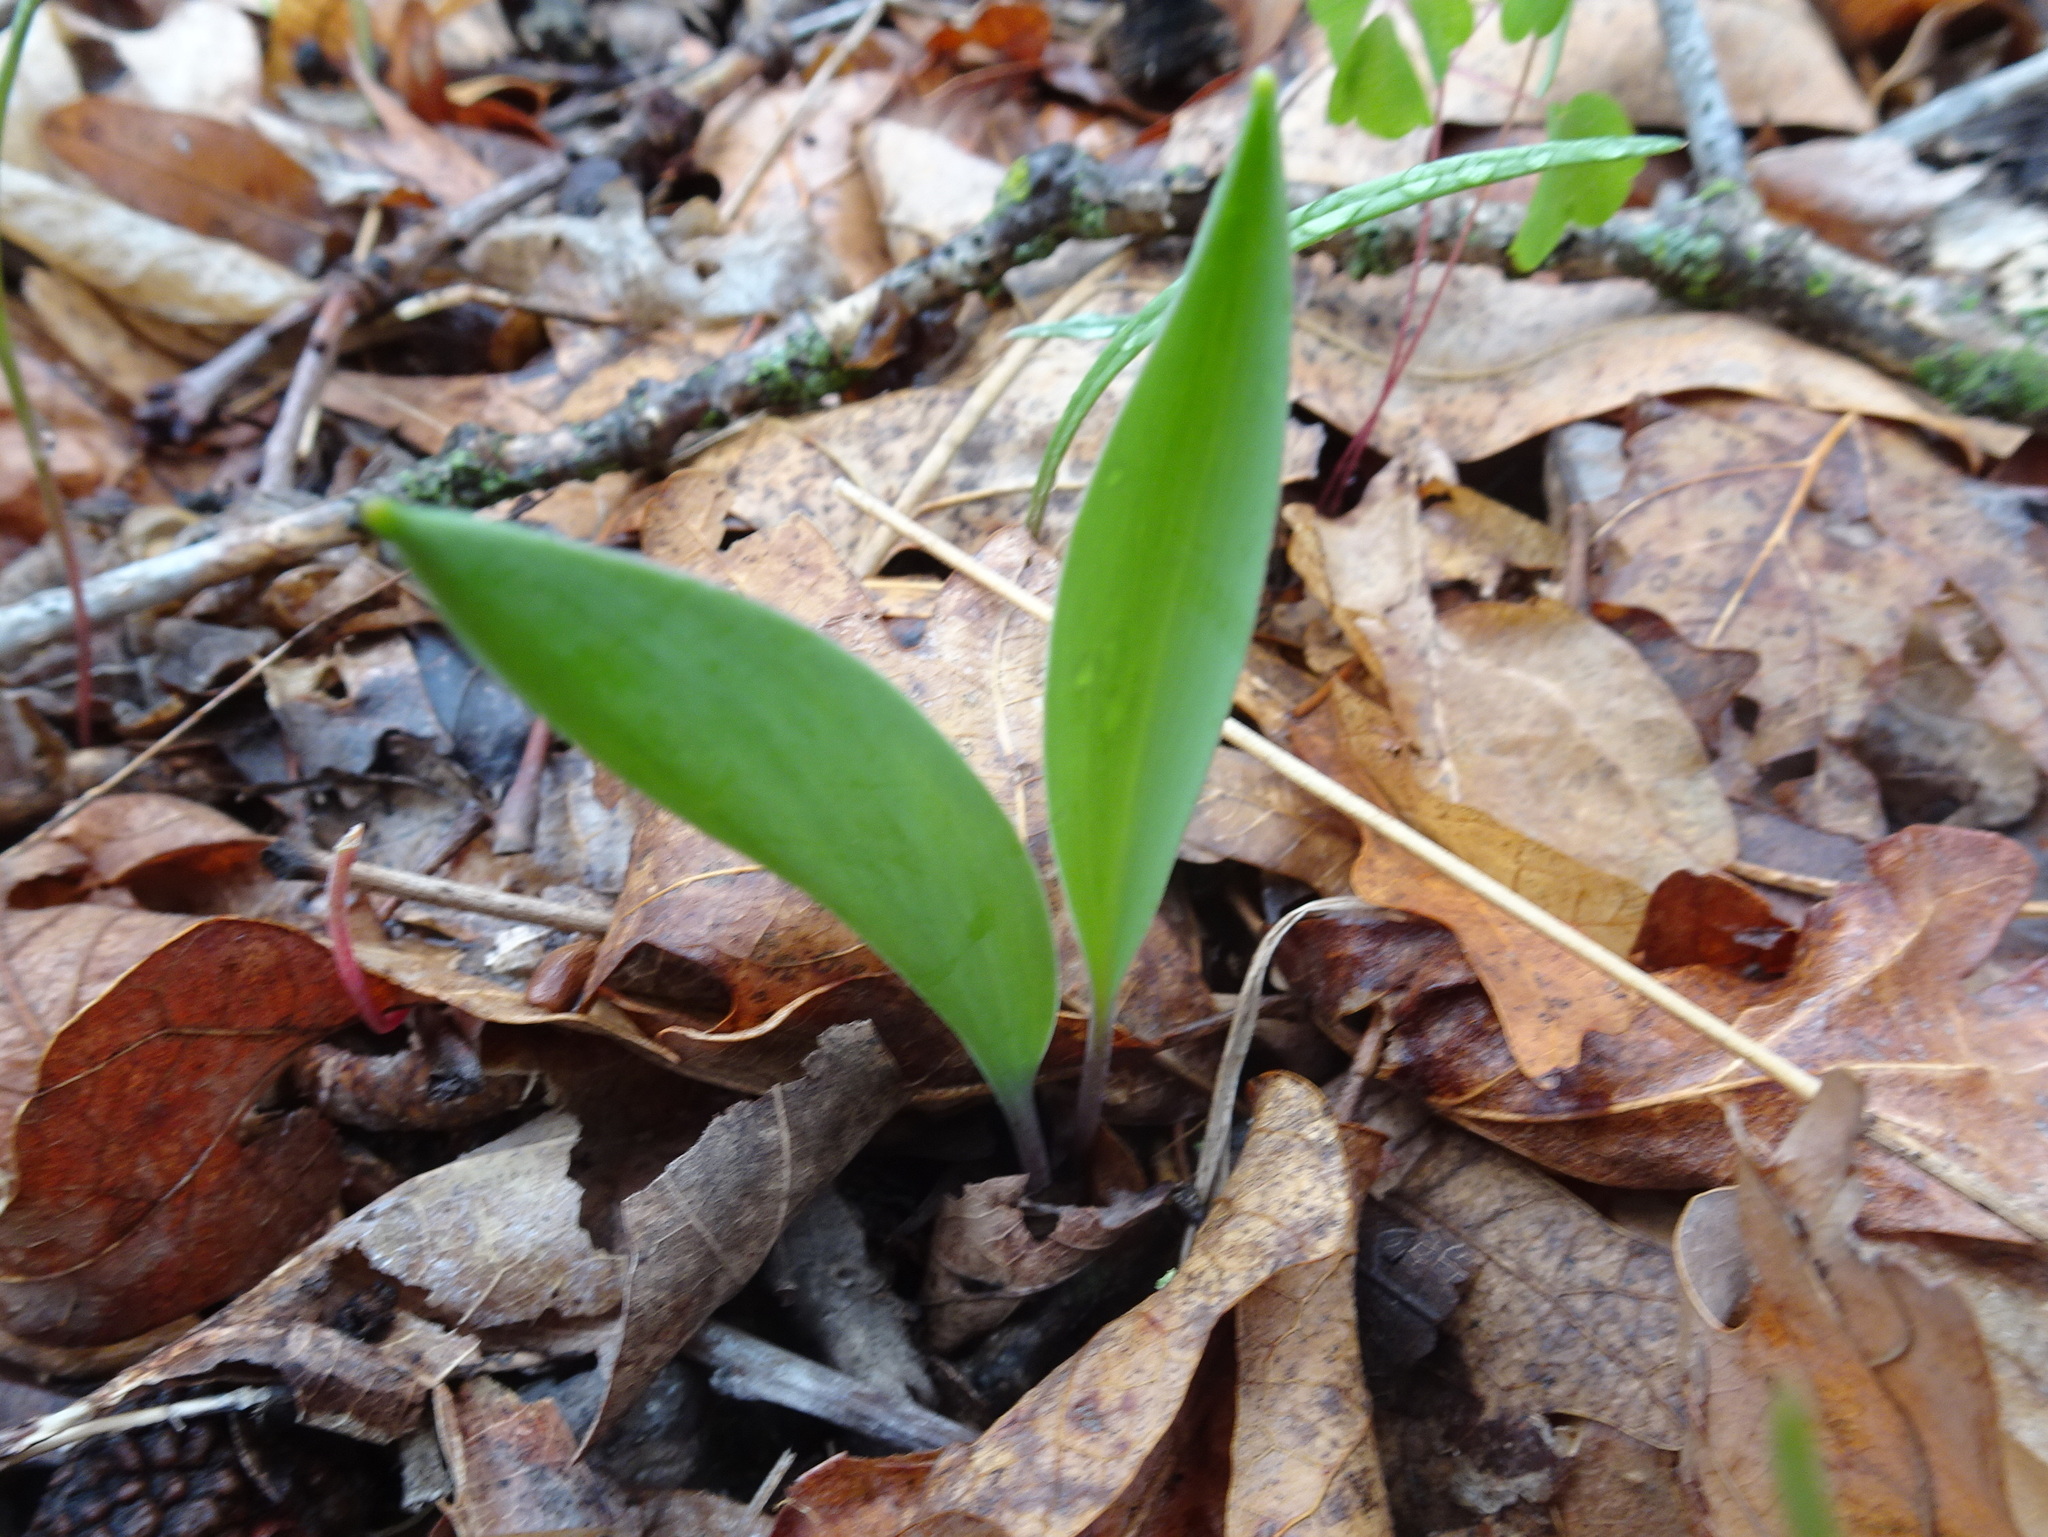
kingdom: Plantae
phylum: Tracheophyta
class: Liliopsida
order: Liliales
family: Liliaceae
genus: Erythronium
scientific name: Erythronium mesochoreum
